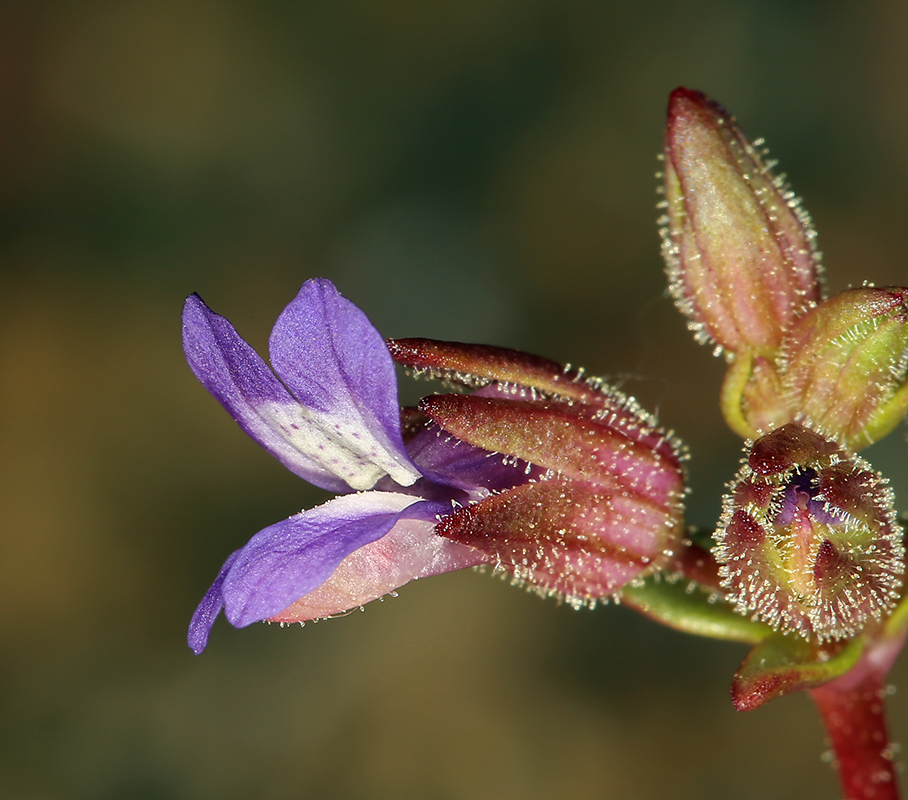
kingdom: Plantae
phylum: Tracheophyta
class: Magnoliopsida
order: Lamiales
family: Plantaginaceae
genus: Collinsia
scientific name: Collinsia callosa
